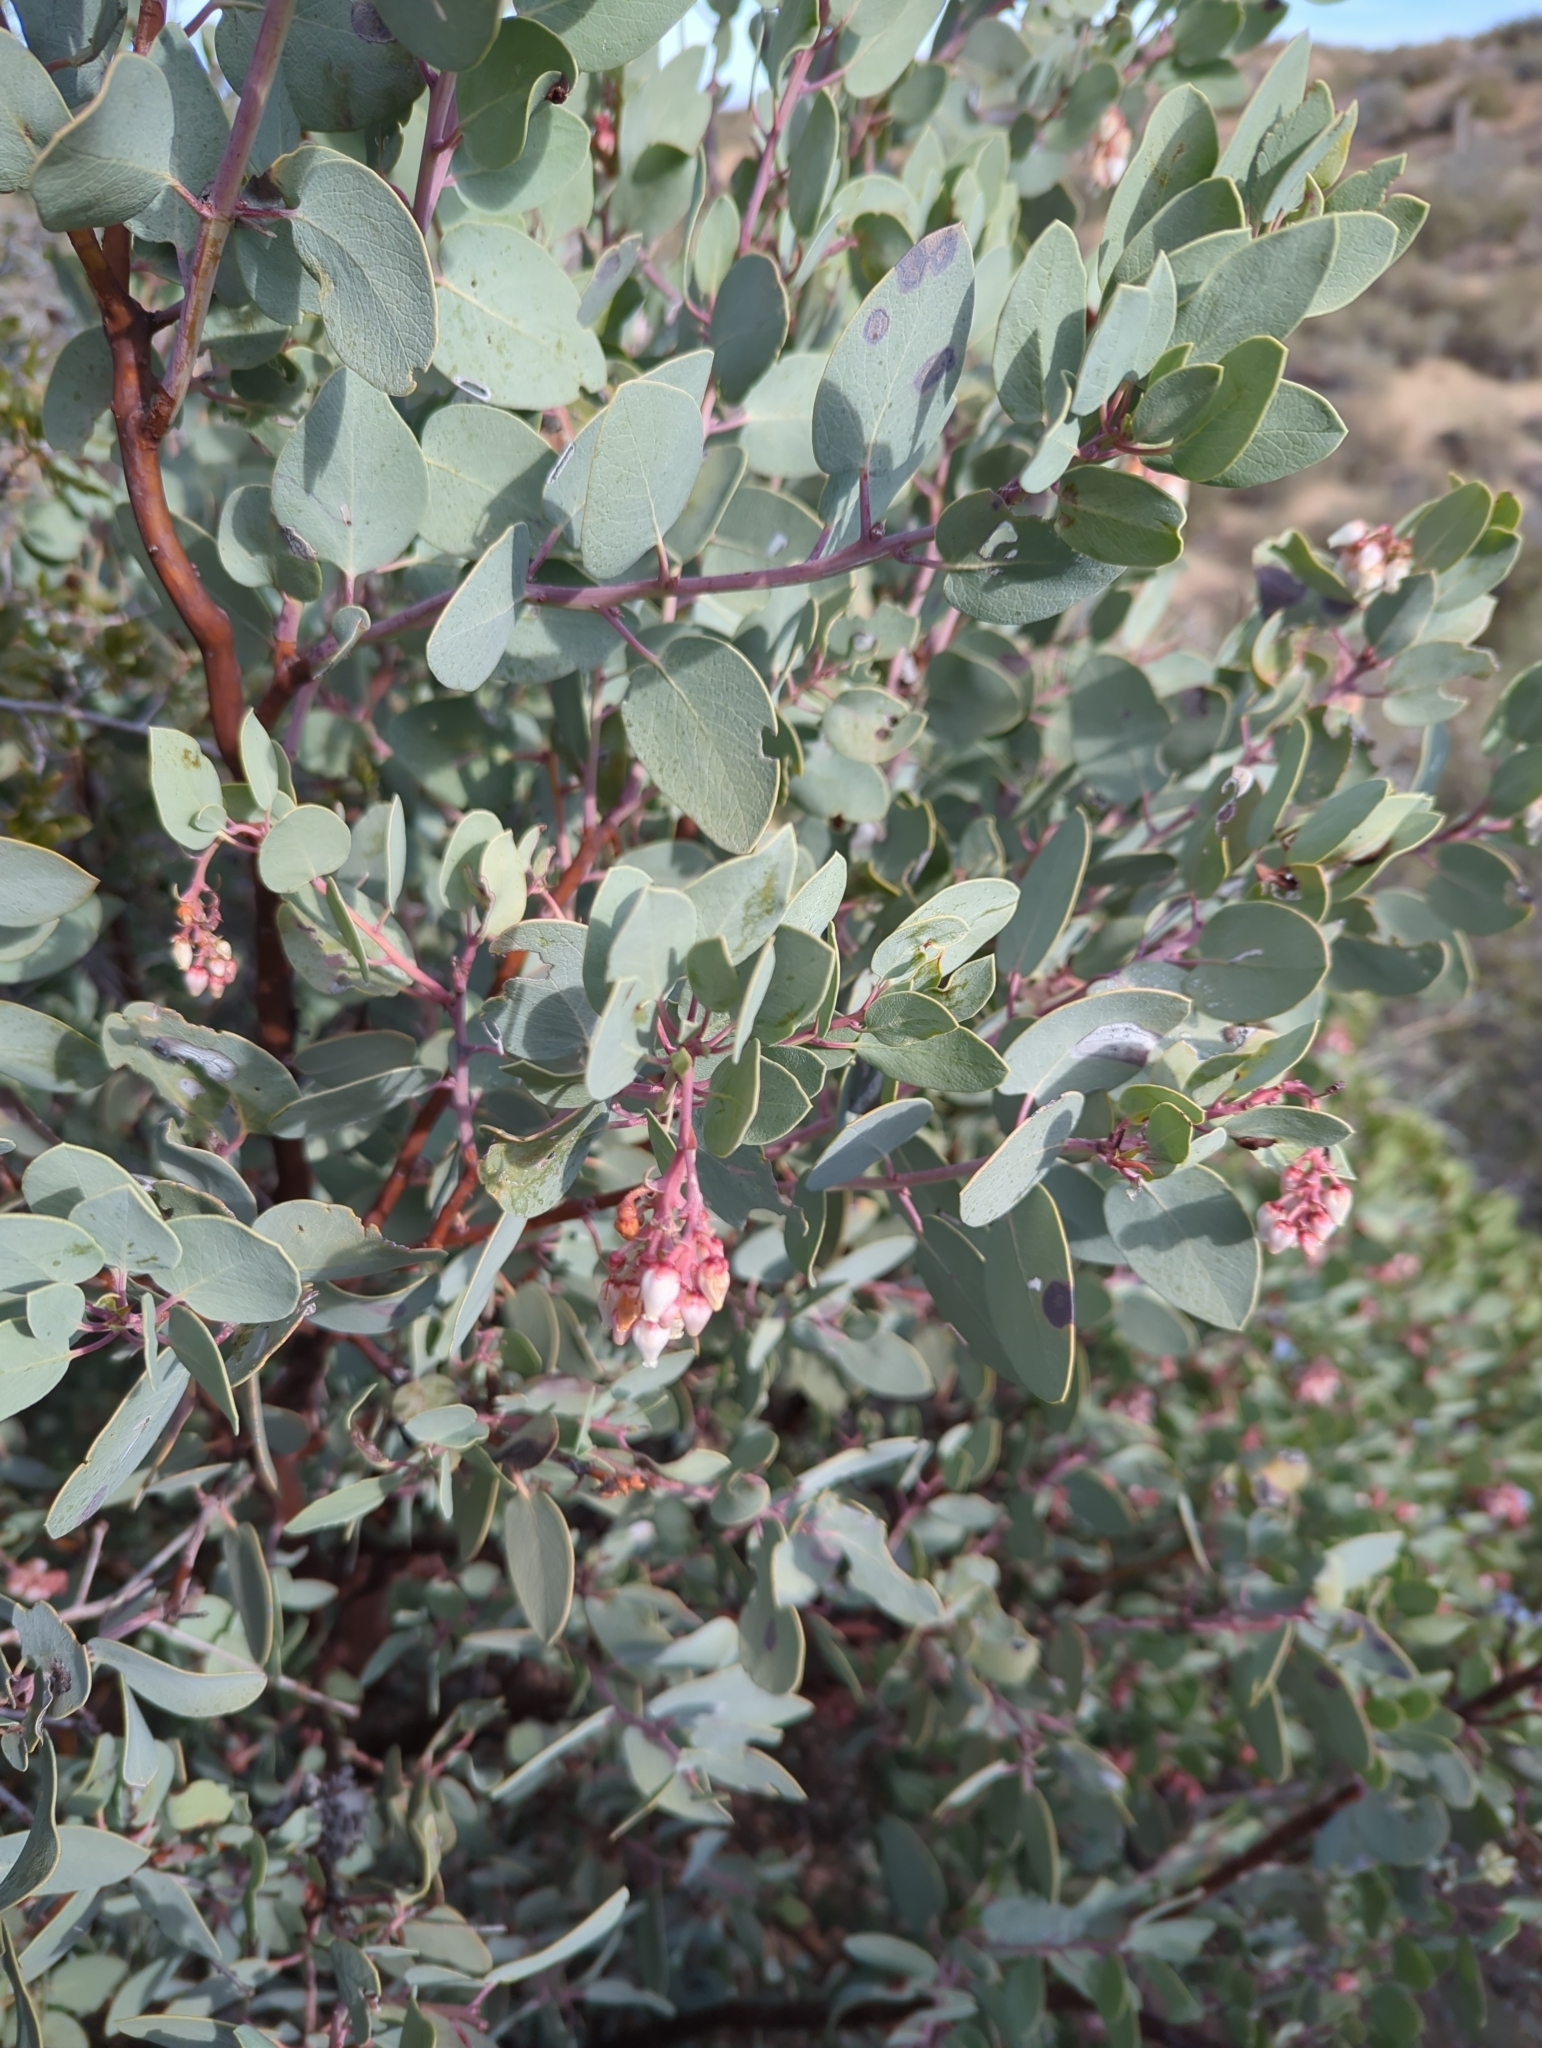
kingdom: Plantae
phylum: Tracheophyta
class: Magnoliopsida
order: Ericales
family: Ericaceae
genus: Arctostaphylos
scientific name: Arctostaphylos glauca
